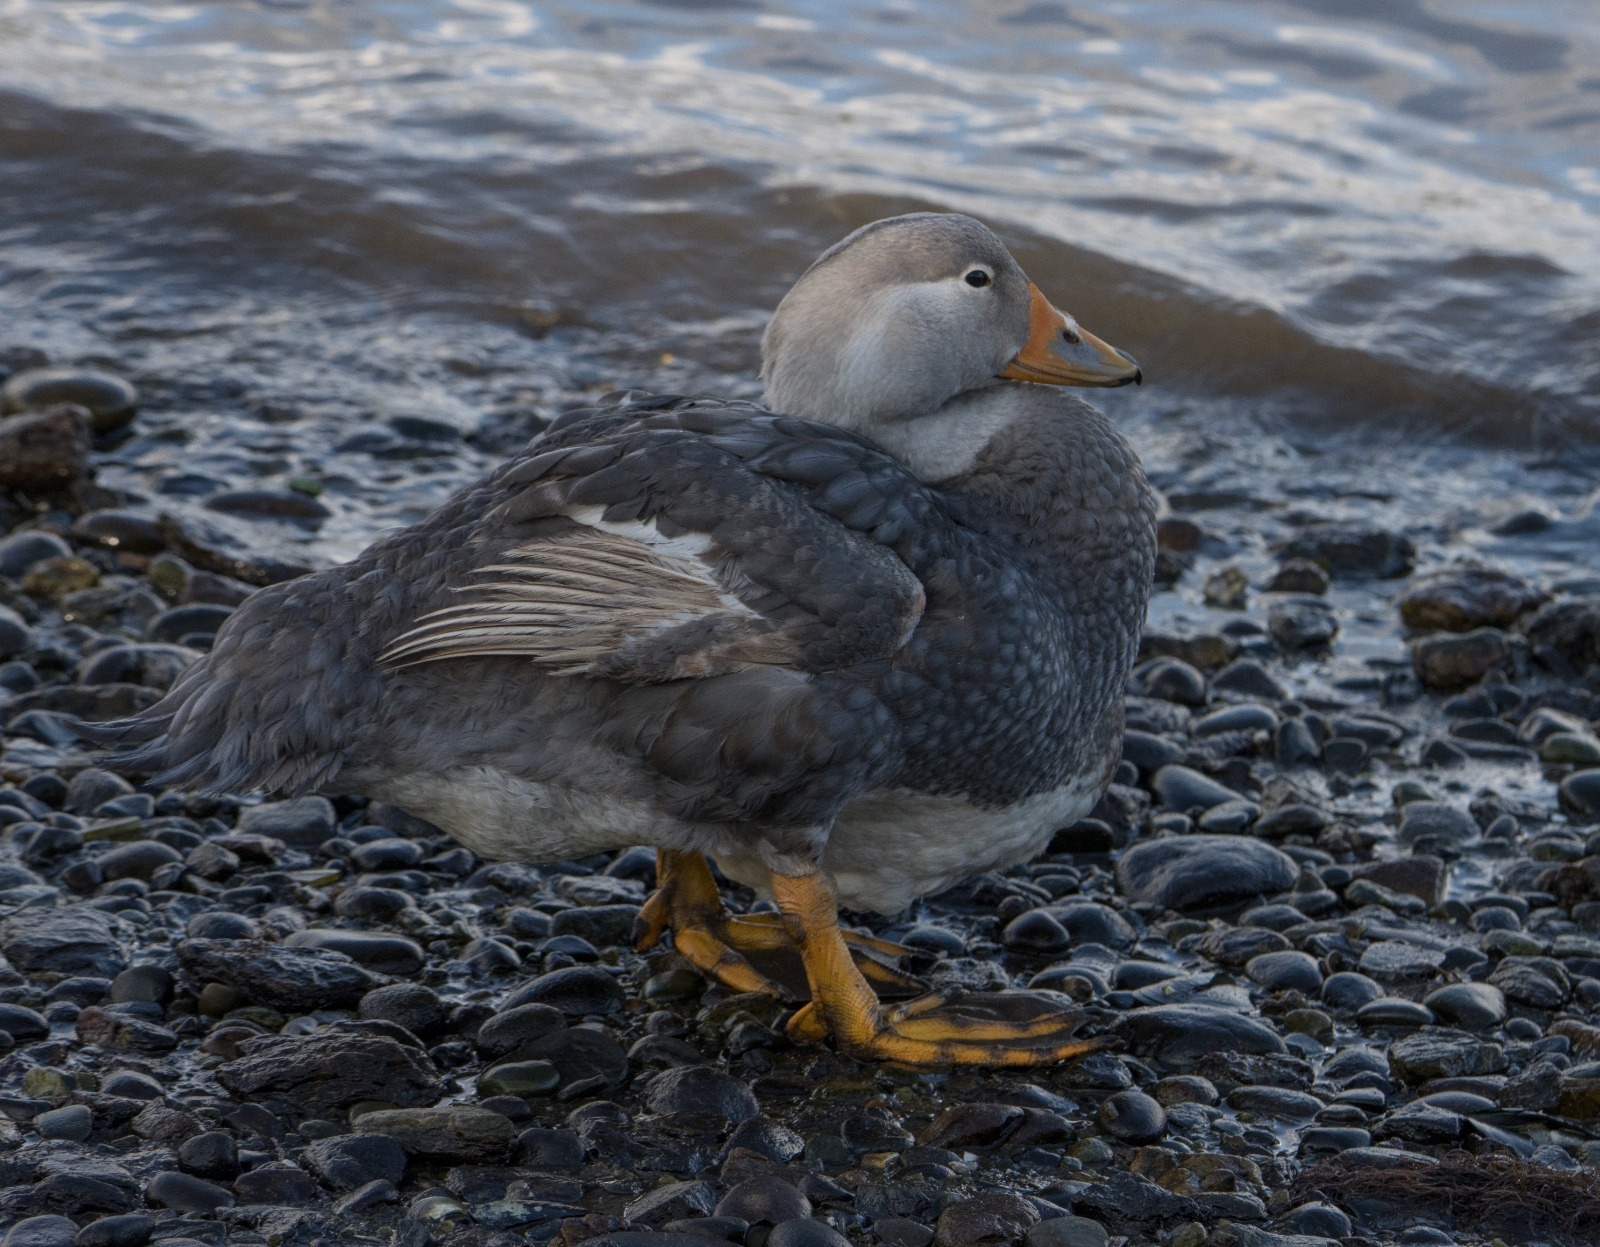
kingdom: Animalia
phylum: Chordata
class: Aves
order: Anseriformes
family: Anatidae
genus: Tachyeres
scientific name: Tachyeres pteneres
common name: Fuegian steamer duck
